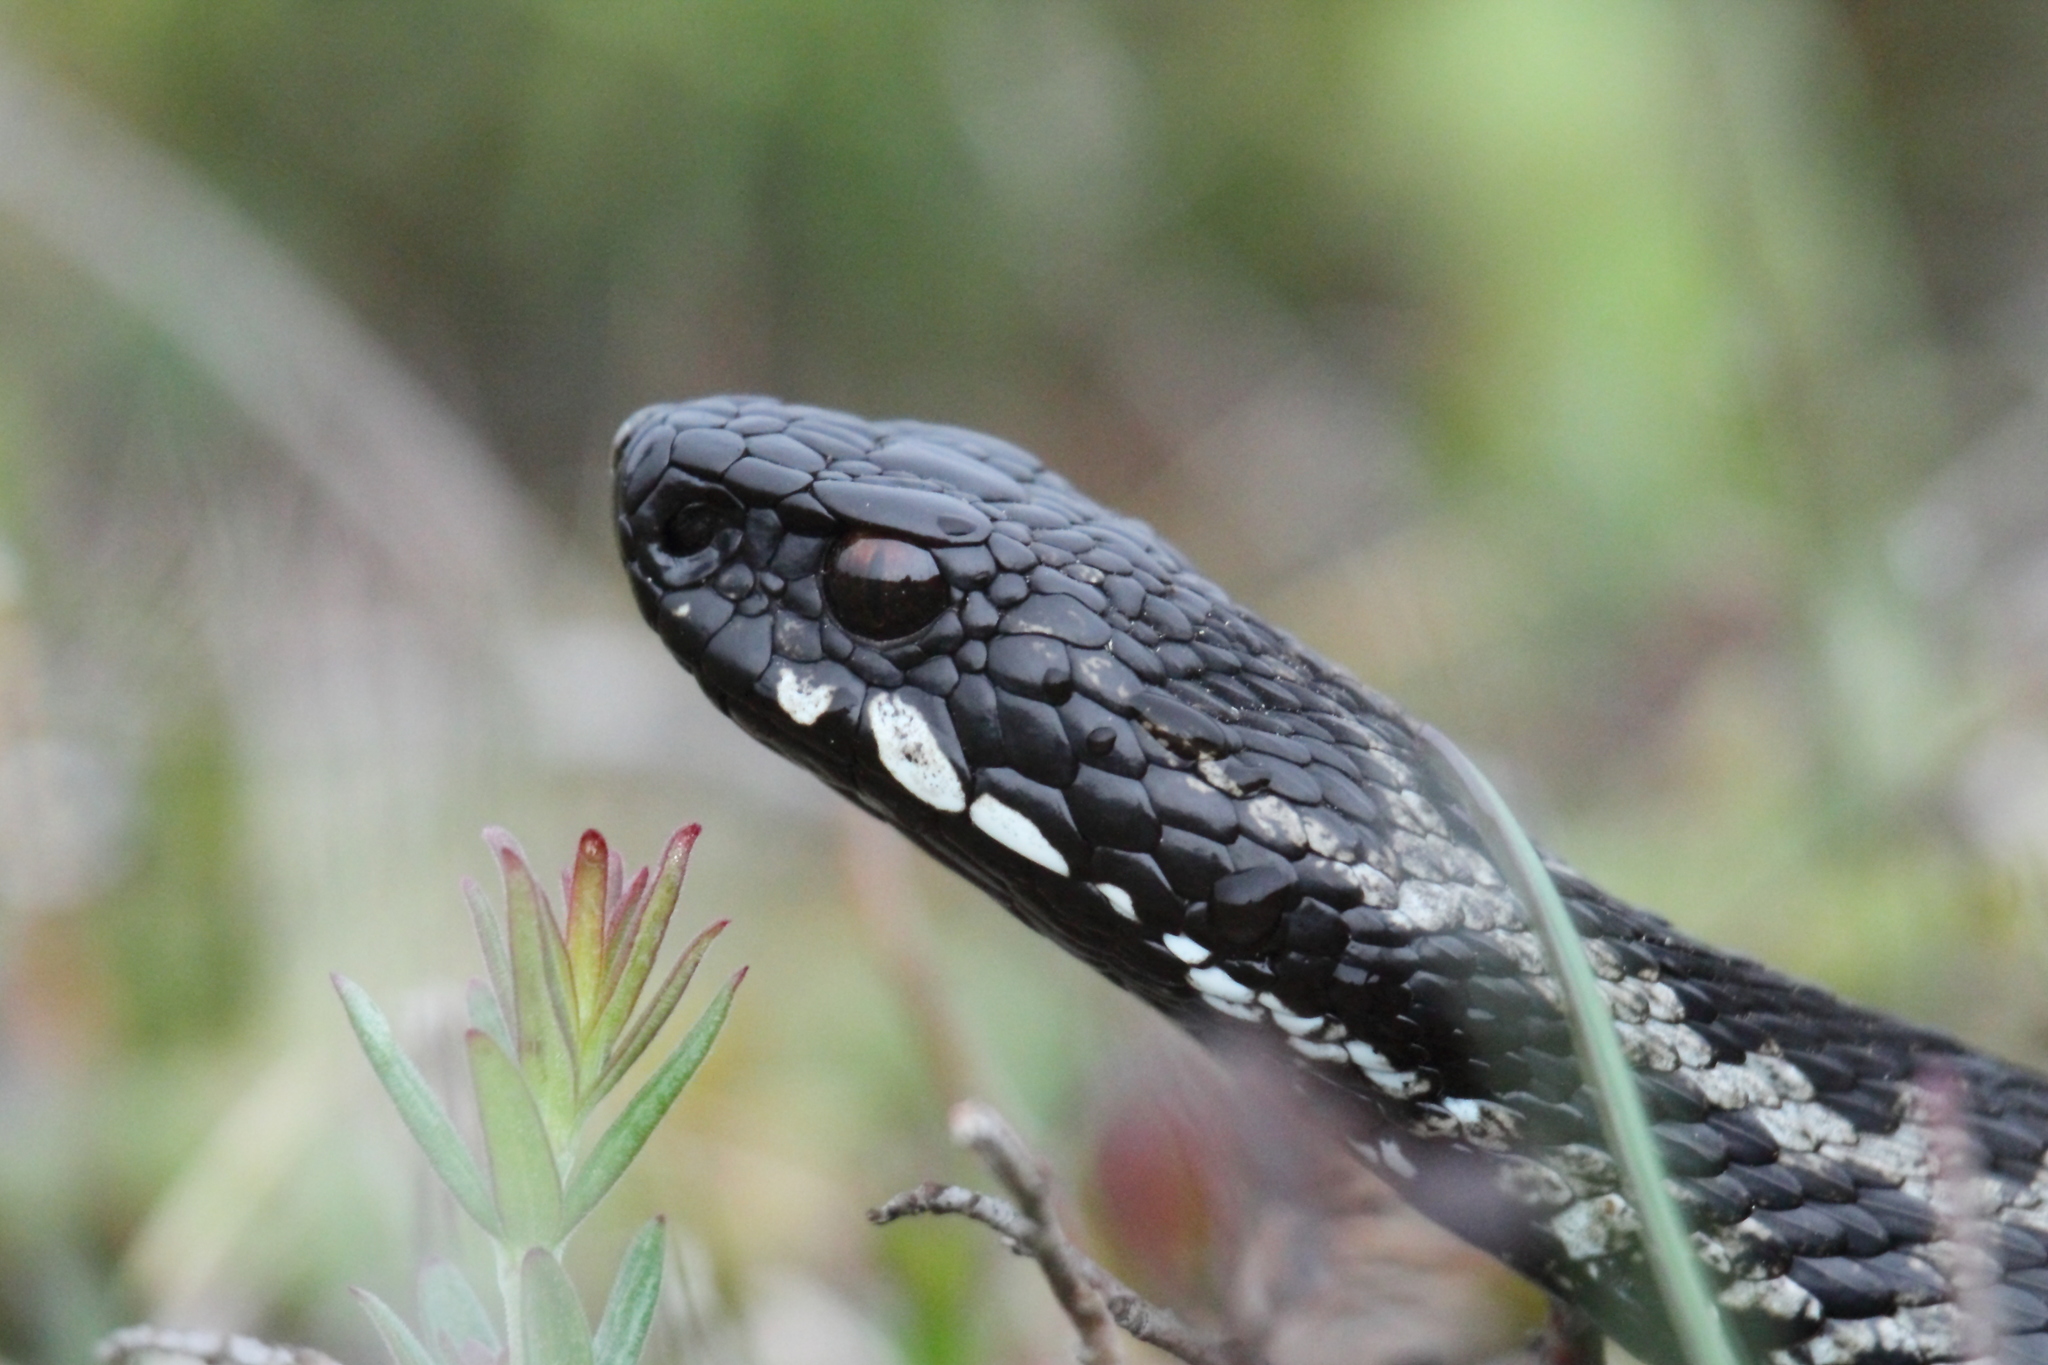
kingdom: Animalia
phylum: Chordata
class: Squamata
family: Viperidae
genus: Vipera
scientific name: Vipera berus
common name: Adder
